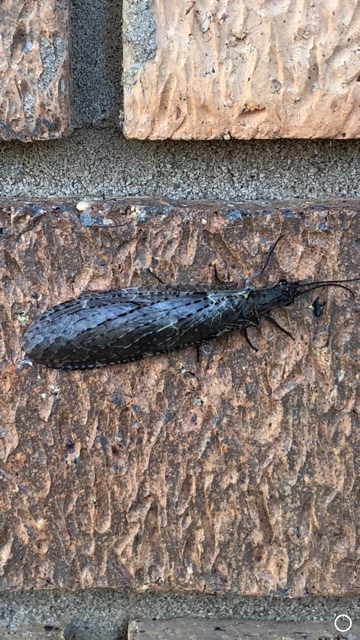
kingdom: Animalia
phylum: Arthropoda
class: Insecta
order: Megaloptera
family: Corydalidae
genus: Chauliodes
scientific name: Chauliodes rastricornis
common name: Spring fishfly
